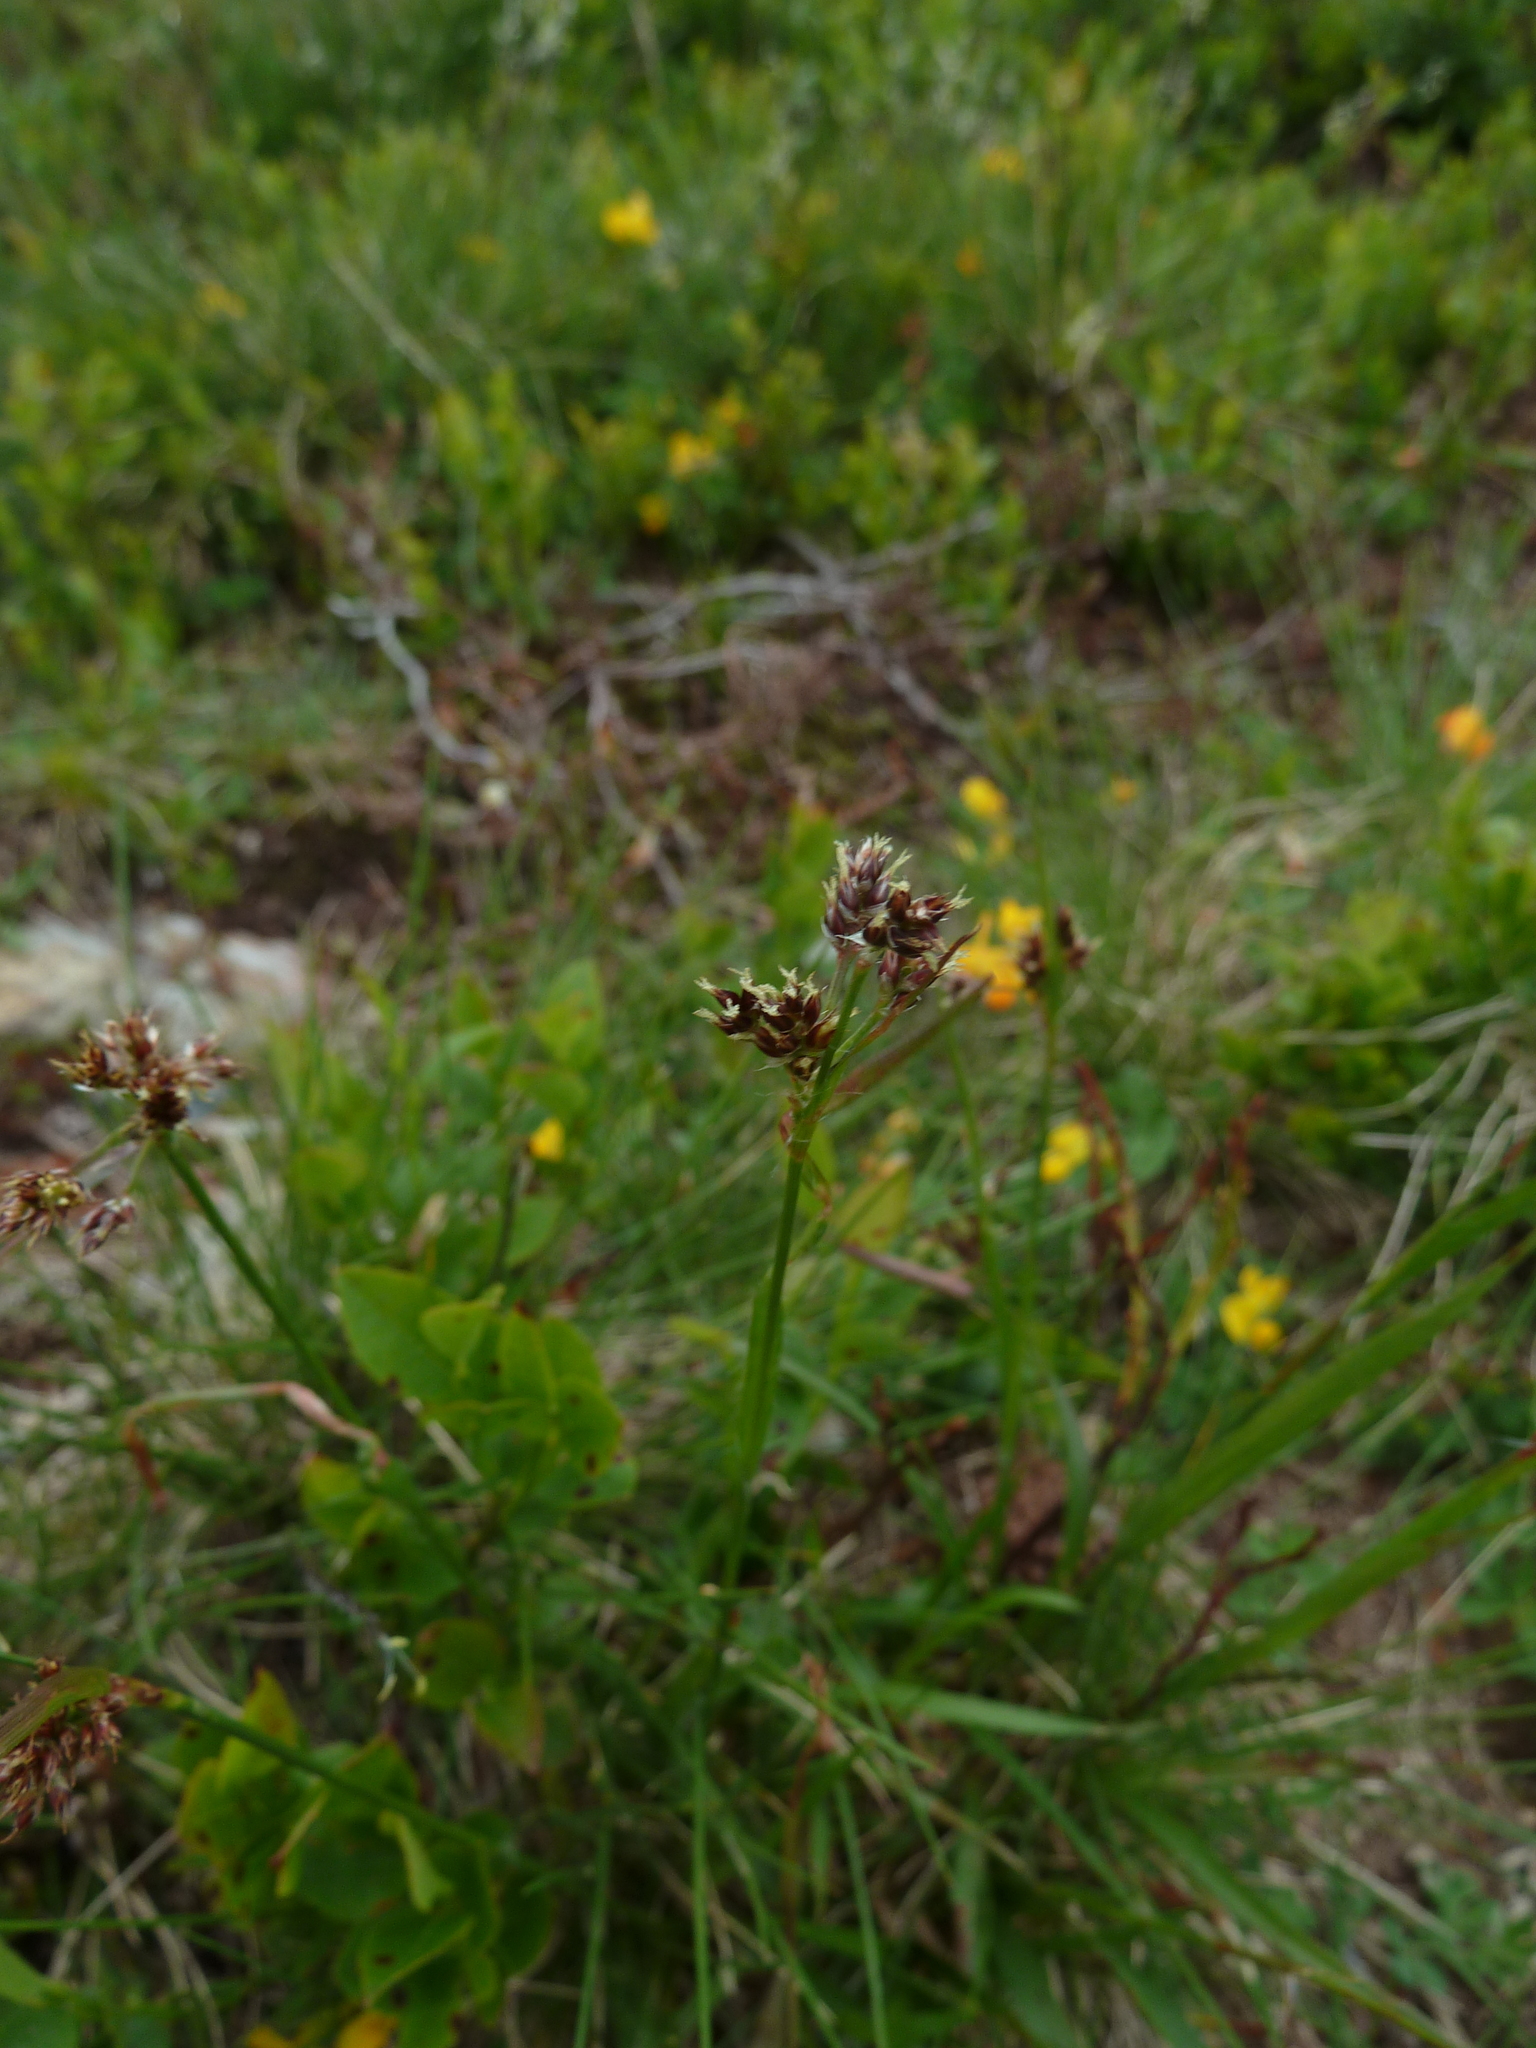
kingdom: Plantae
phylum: Tracheophyta
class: Liliopsida
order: Poales
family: Juncaceae
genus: Luzula
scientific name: Luzula campestris
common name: Field wood-rush
